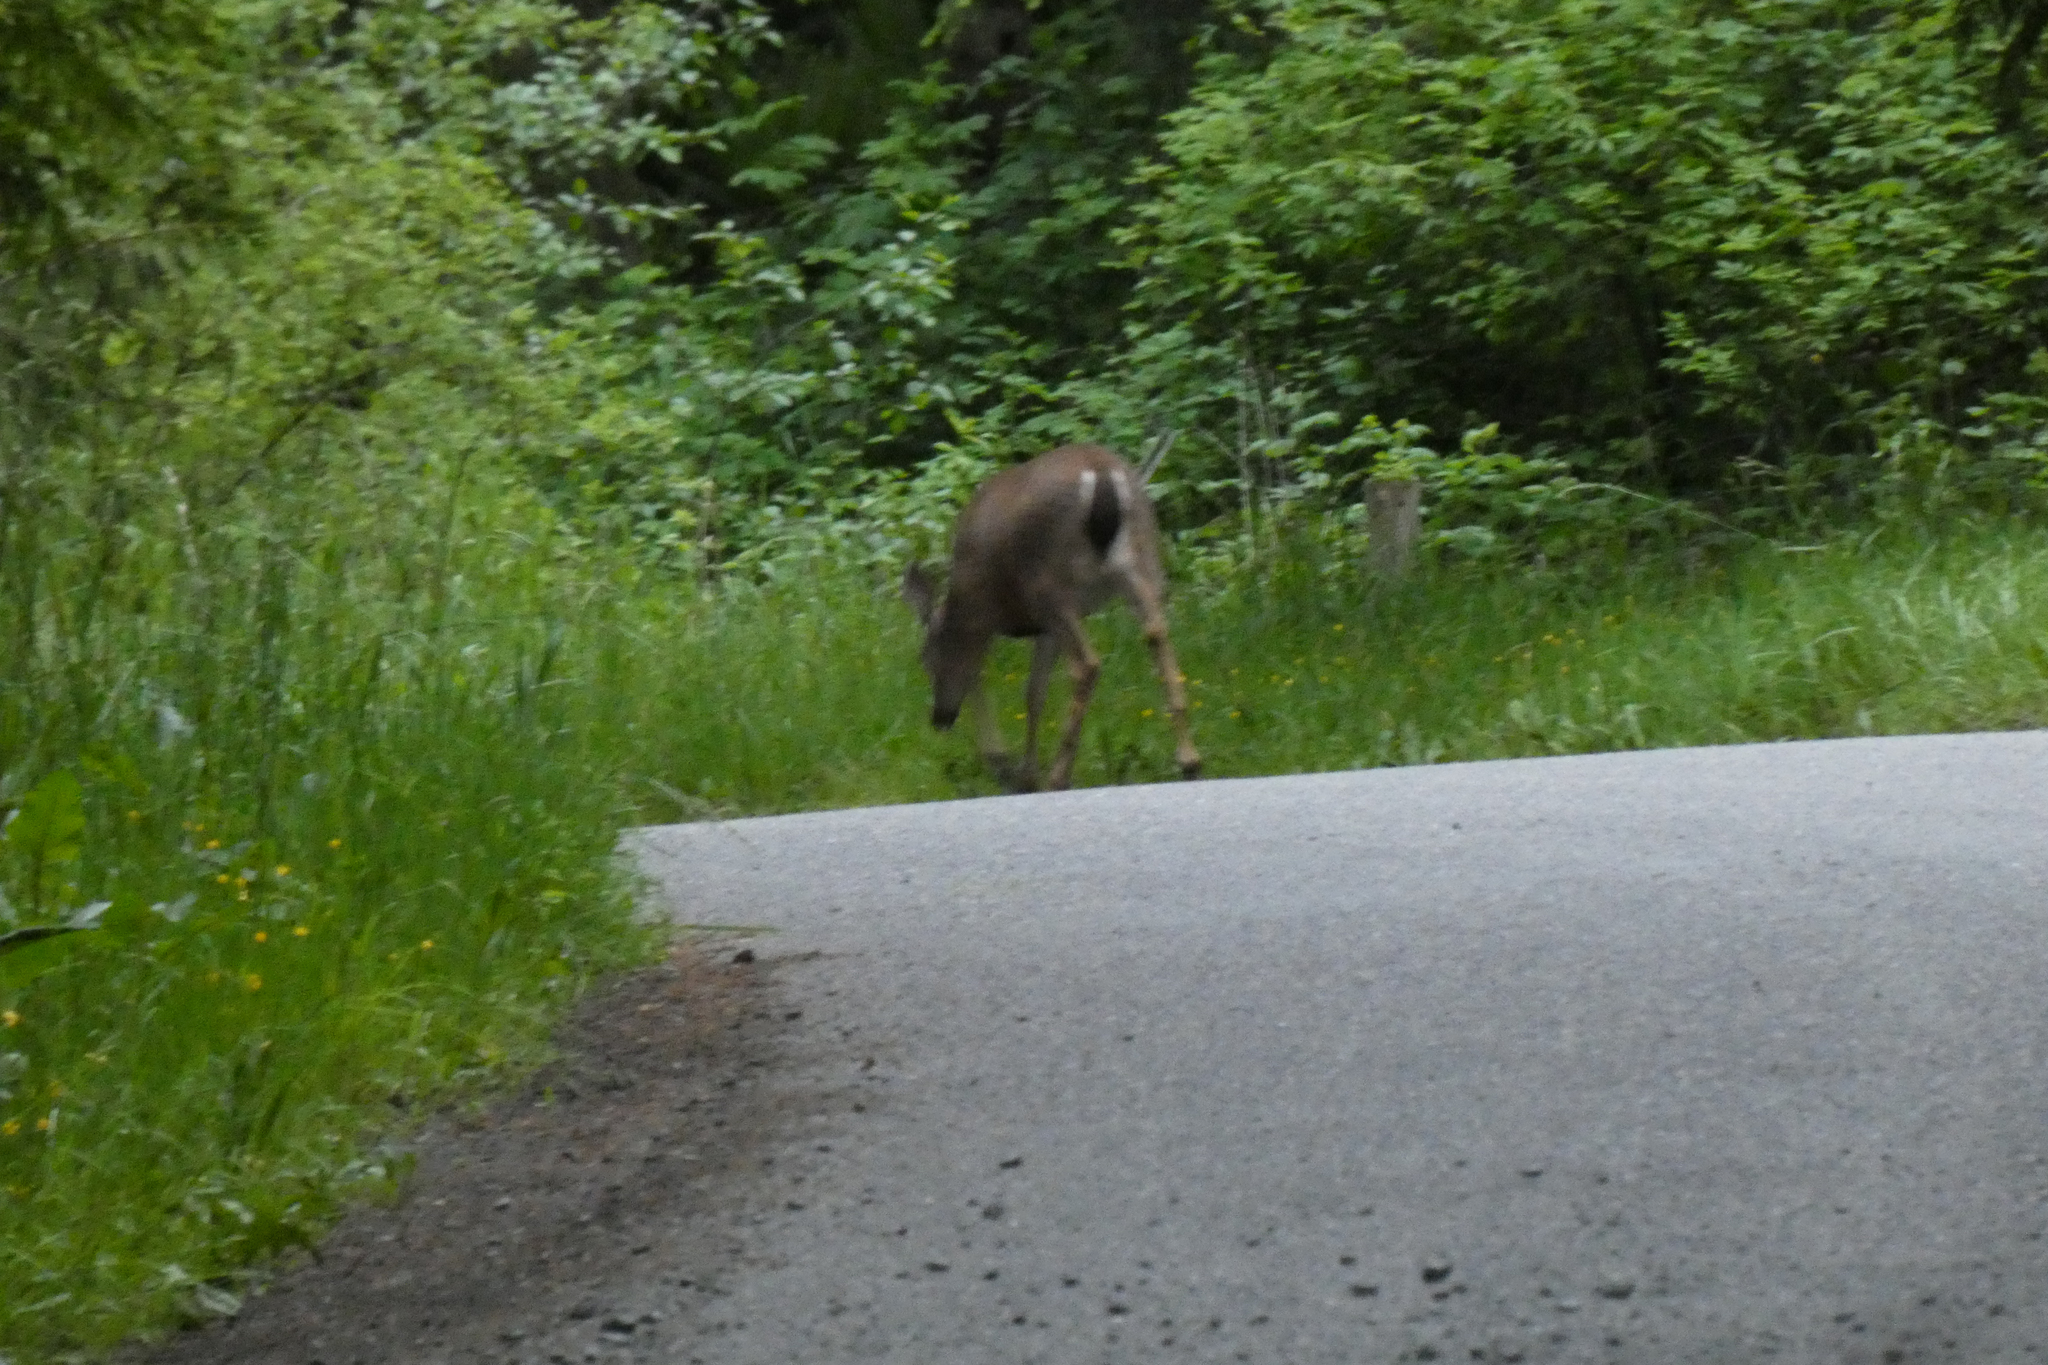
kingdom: Animalia
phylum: Chordata
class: Mammalia
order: Artiodactyla
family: Cervidae
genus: Odocoileus
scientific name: Odocoileus hemionus
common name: Mule deer
